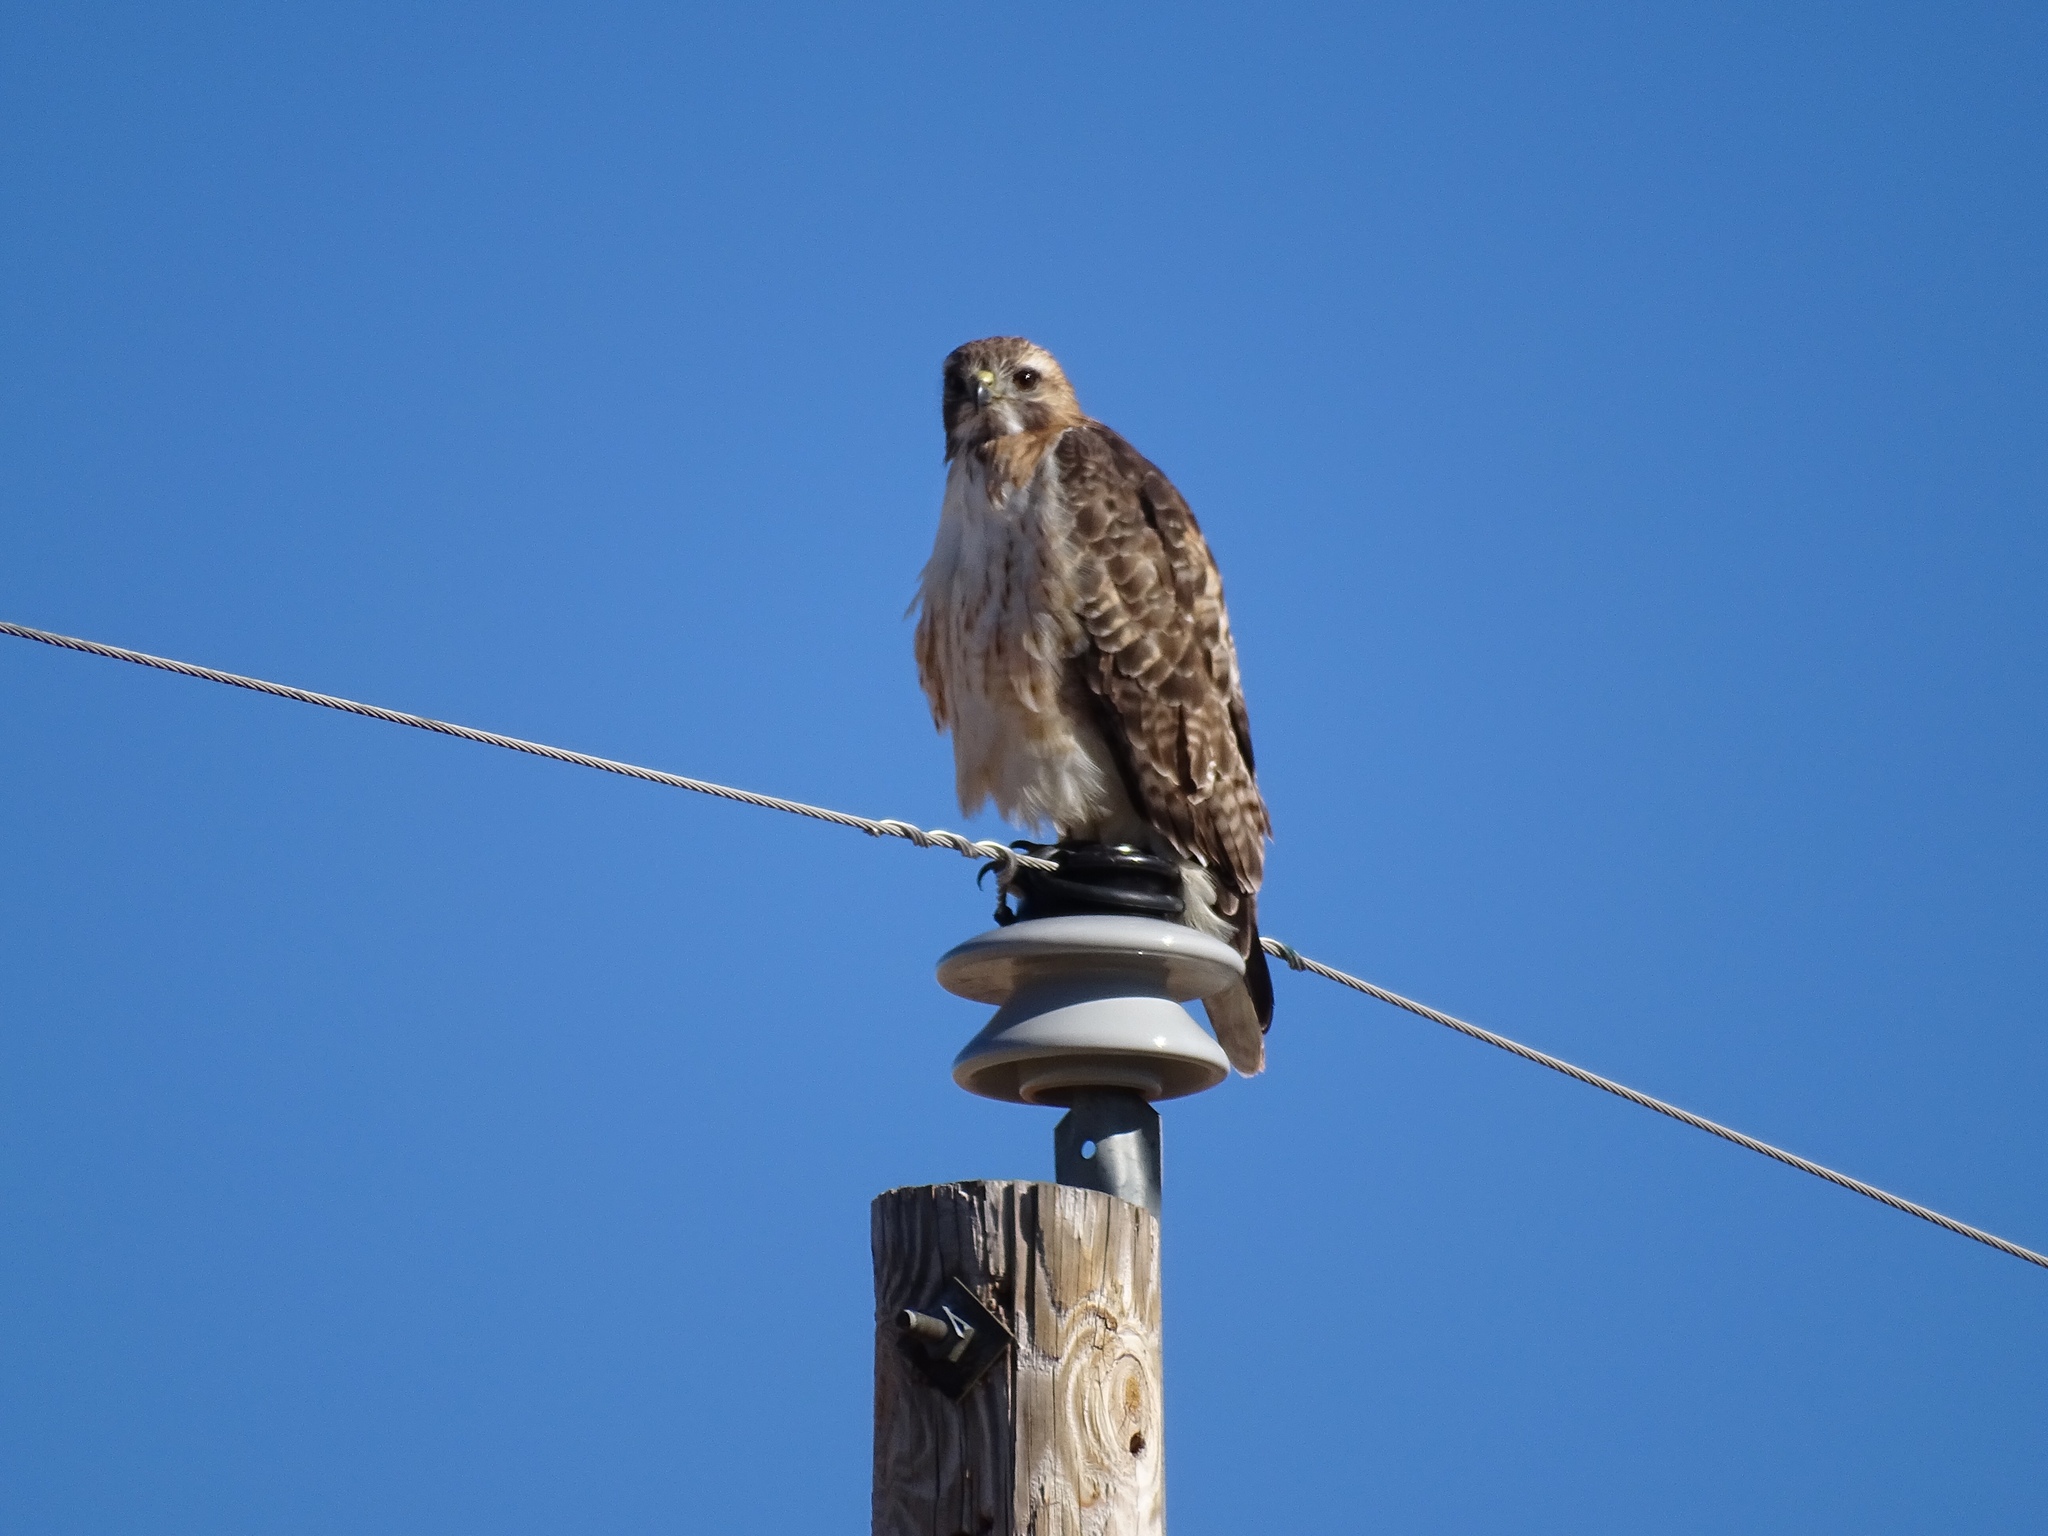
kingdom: Animalia
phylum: Chordata
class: Aves
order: Accipitriformes
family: Accipitridae
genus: Buteo
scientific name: Buteo jamaicensis
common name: Red-tailed hawk
